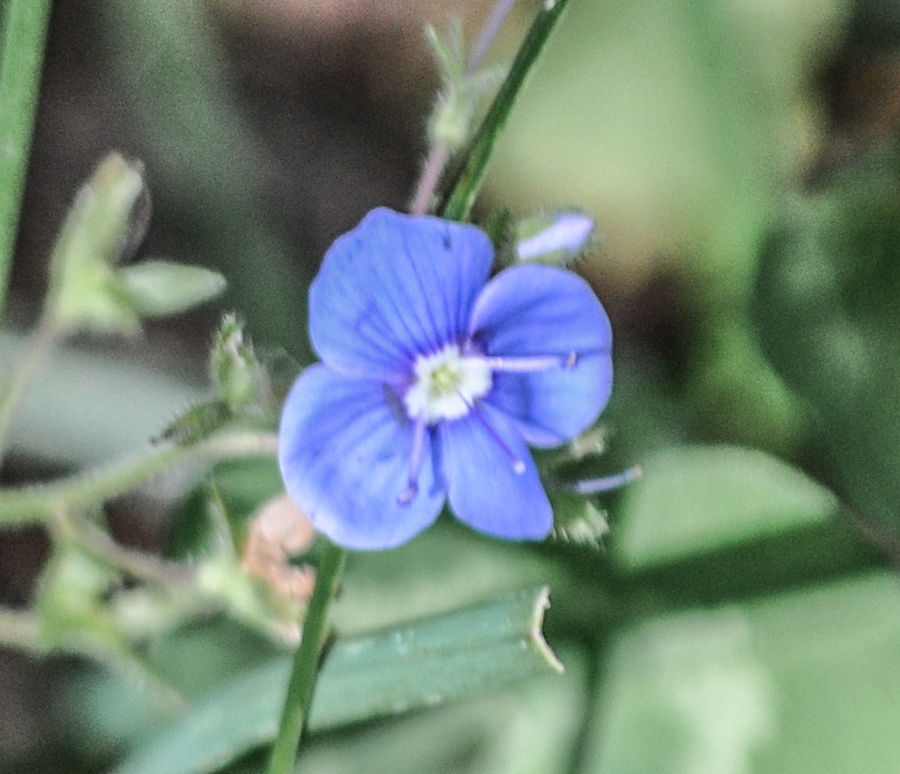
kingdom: Plantae
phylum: Tracheophyta
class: Magnoliopsida
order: Lamiales
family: Plantaginaceae
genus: Veronica
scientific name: Veronica chamaedrys
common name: Germander speedwell
